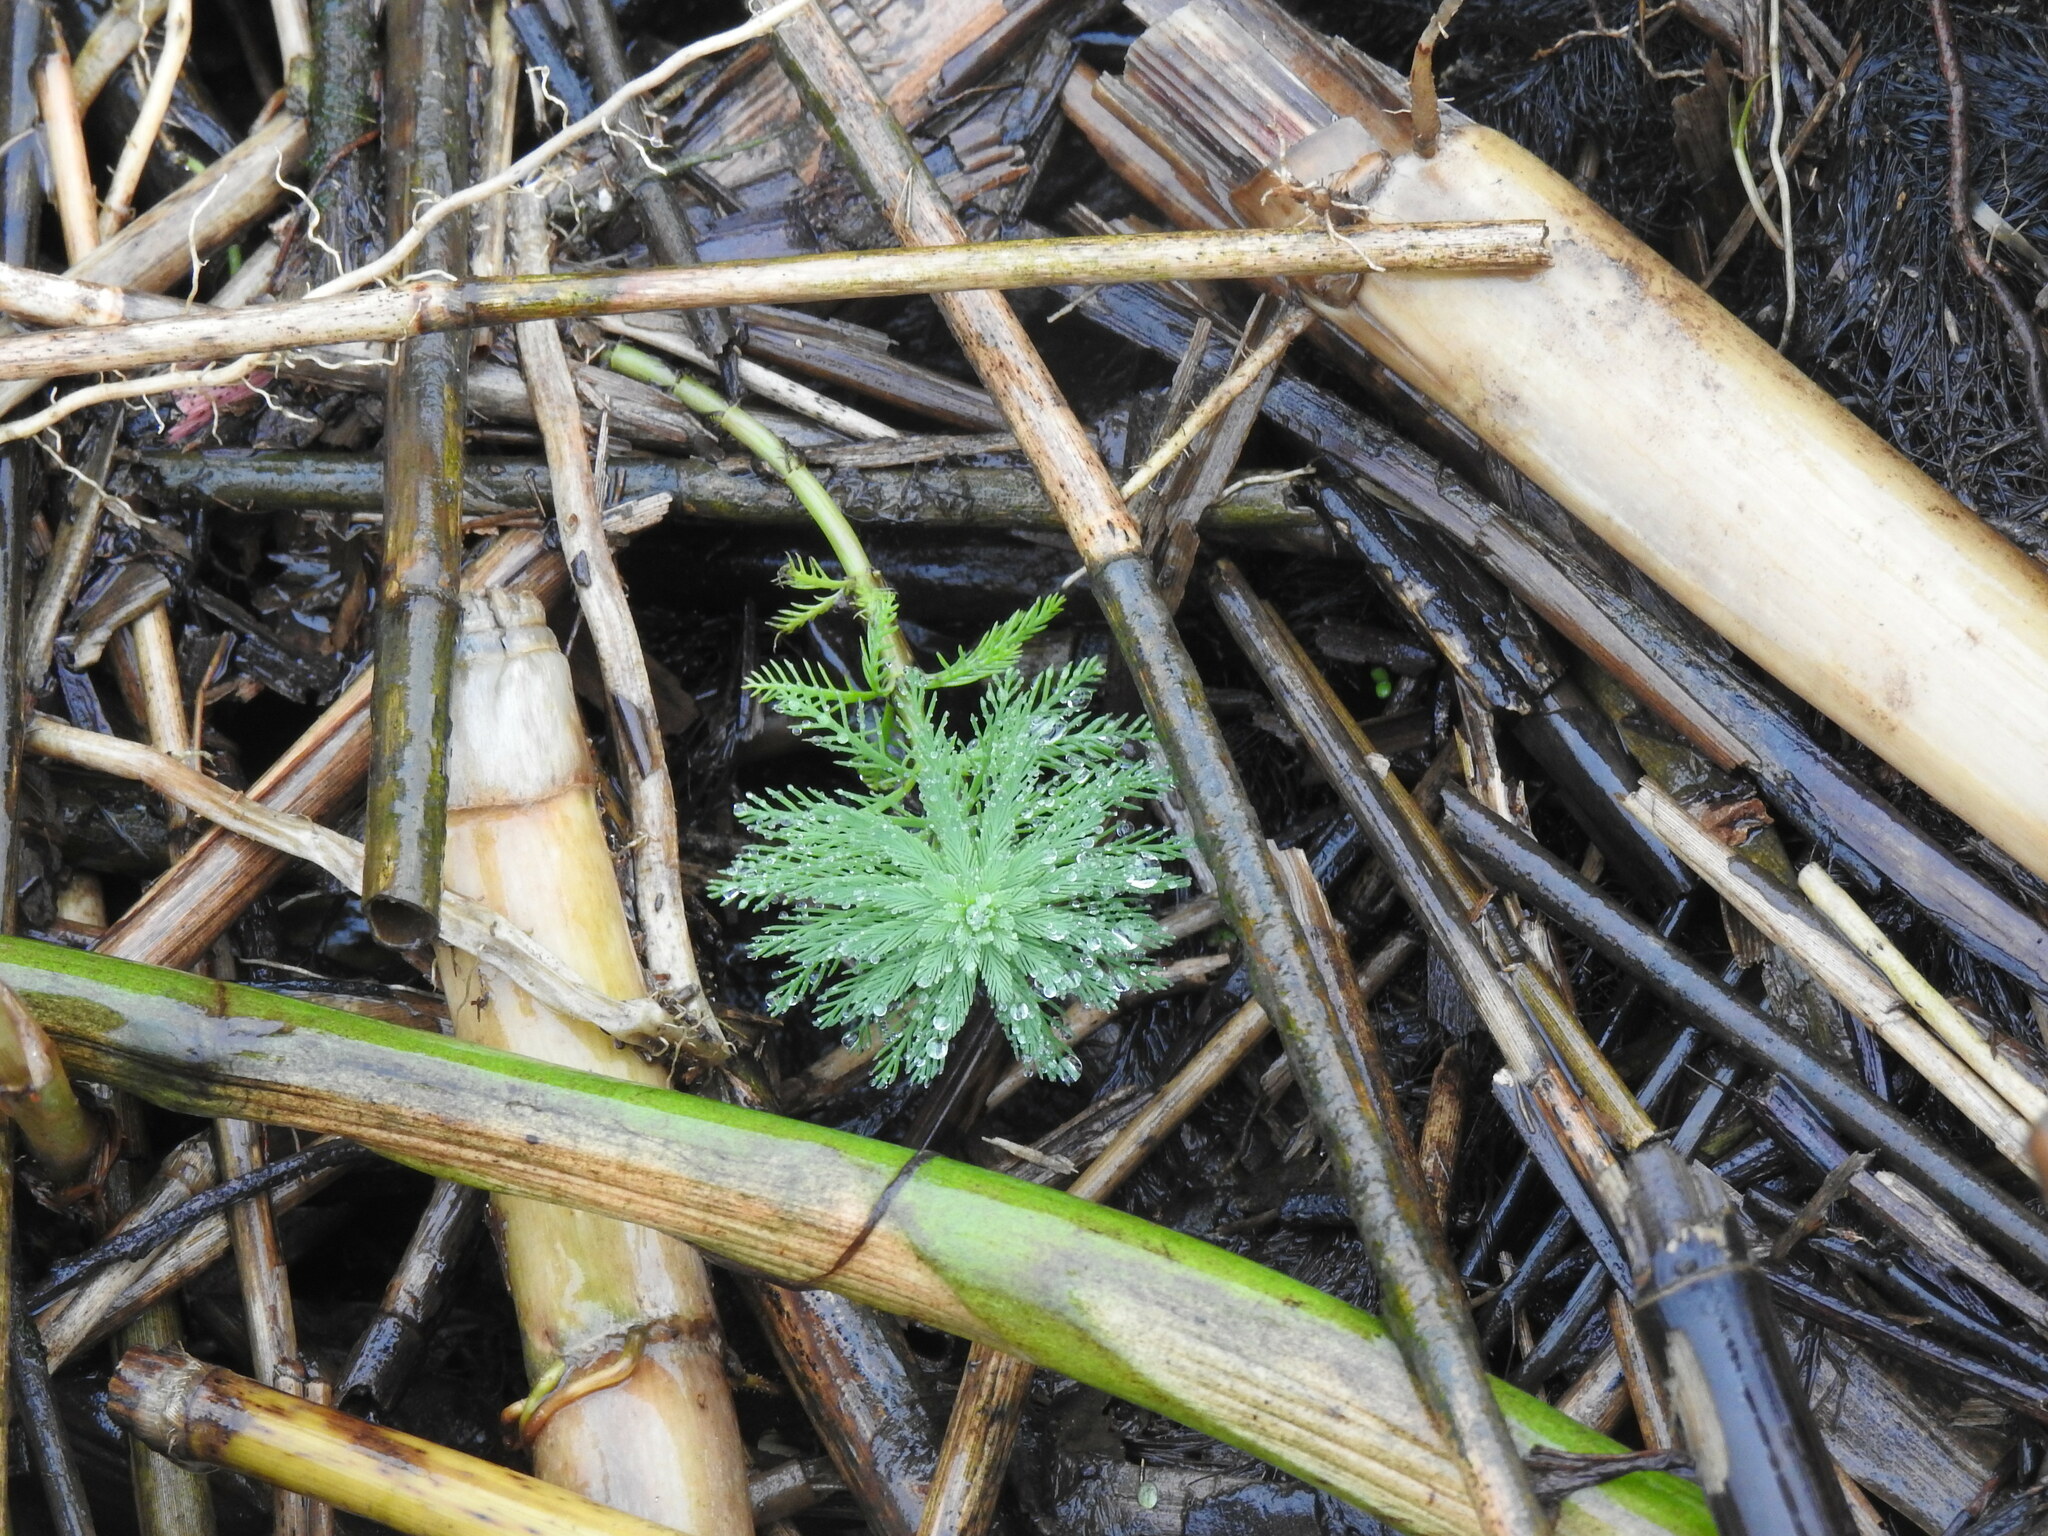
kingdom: Plantae
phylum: Tracheophyta
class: Magnoliopsida
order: Saxifragales
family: Haloragaceae
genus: Myriophyllum
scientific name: Myriophyllum aquaticum
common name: Parrot's feather
